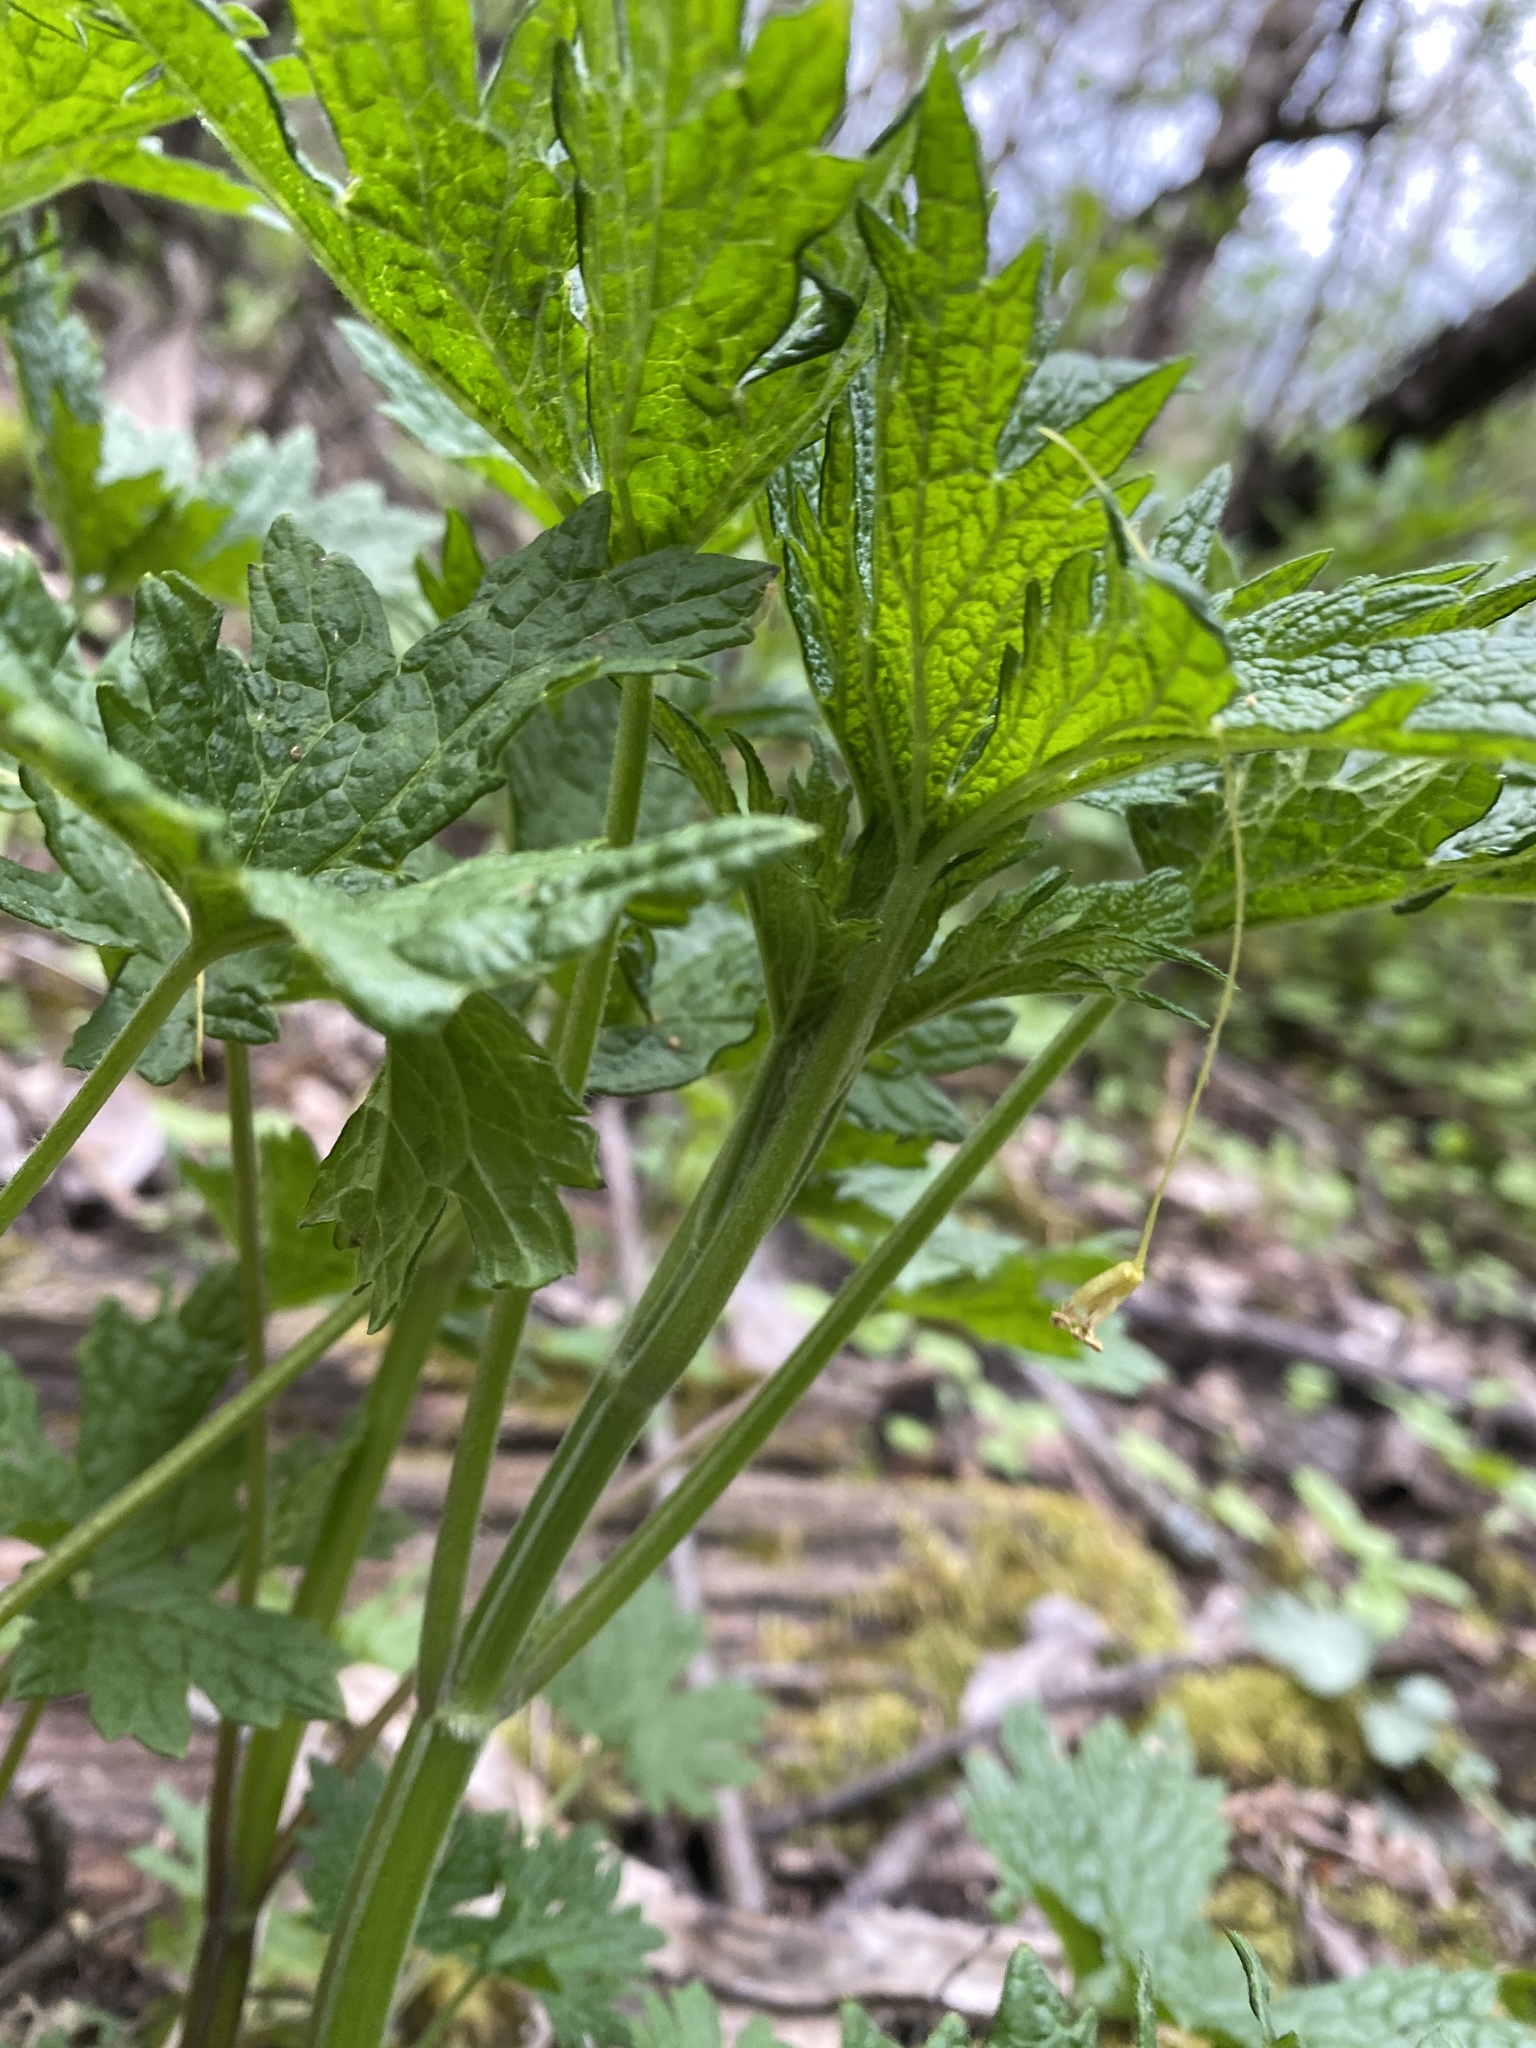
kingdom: Plantae
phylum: Tracheophyta
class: Magnoliopsida
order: Lamiales
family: Lamiaceae
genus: Leonurus
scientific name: Leonurus cardiaca
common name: Motherwort
